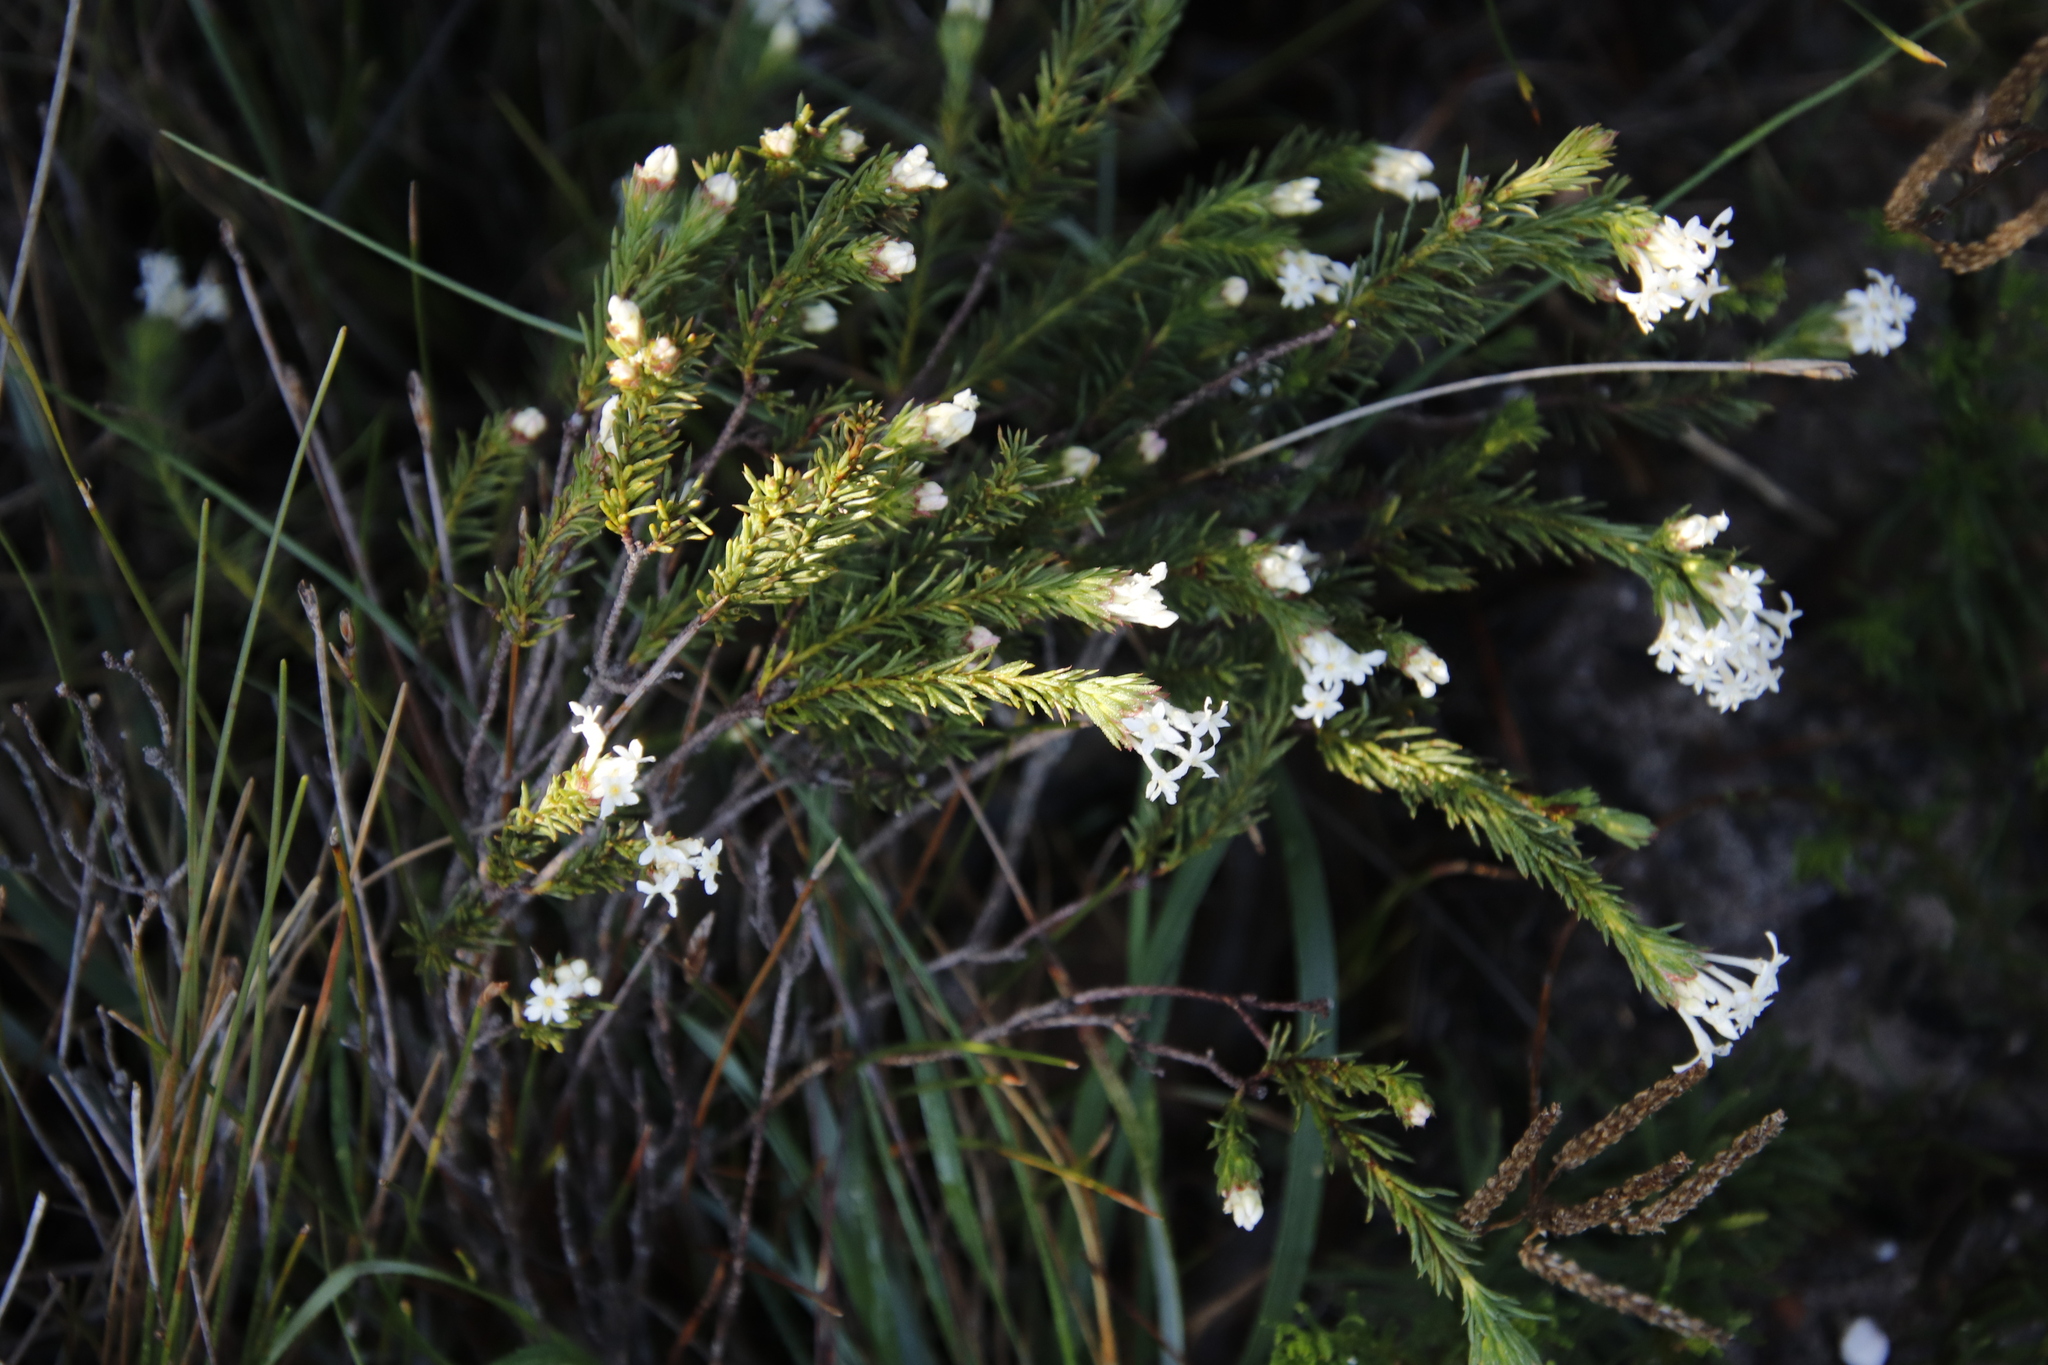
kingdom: Plantae
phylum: Tracheophyta
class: Magnoliopsida
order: Malvales
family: Thymelaeaceae
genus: Gnidia
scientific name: Gnidia pinifolia
